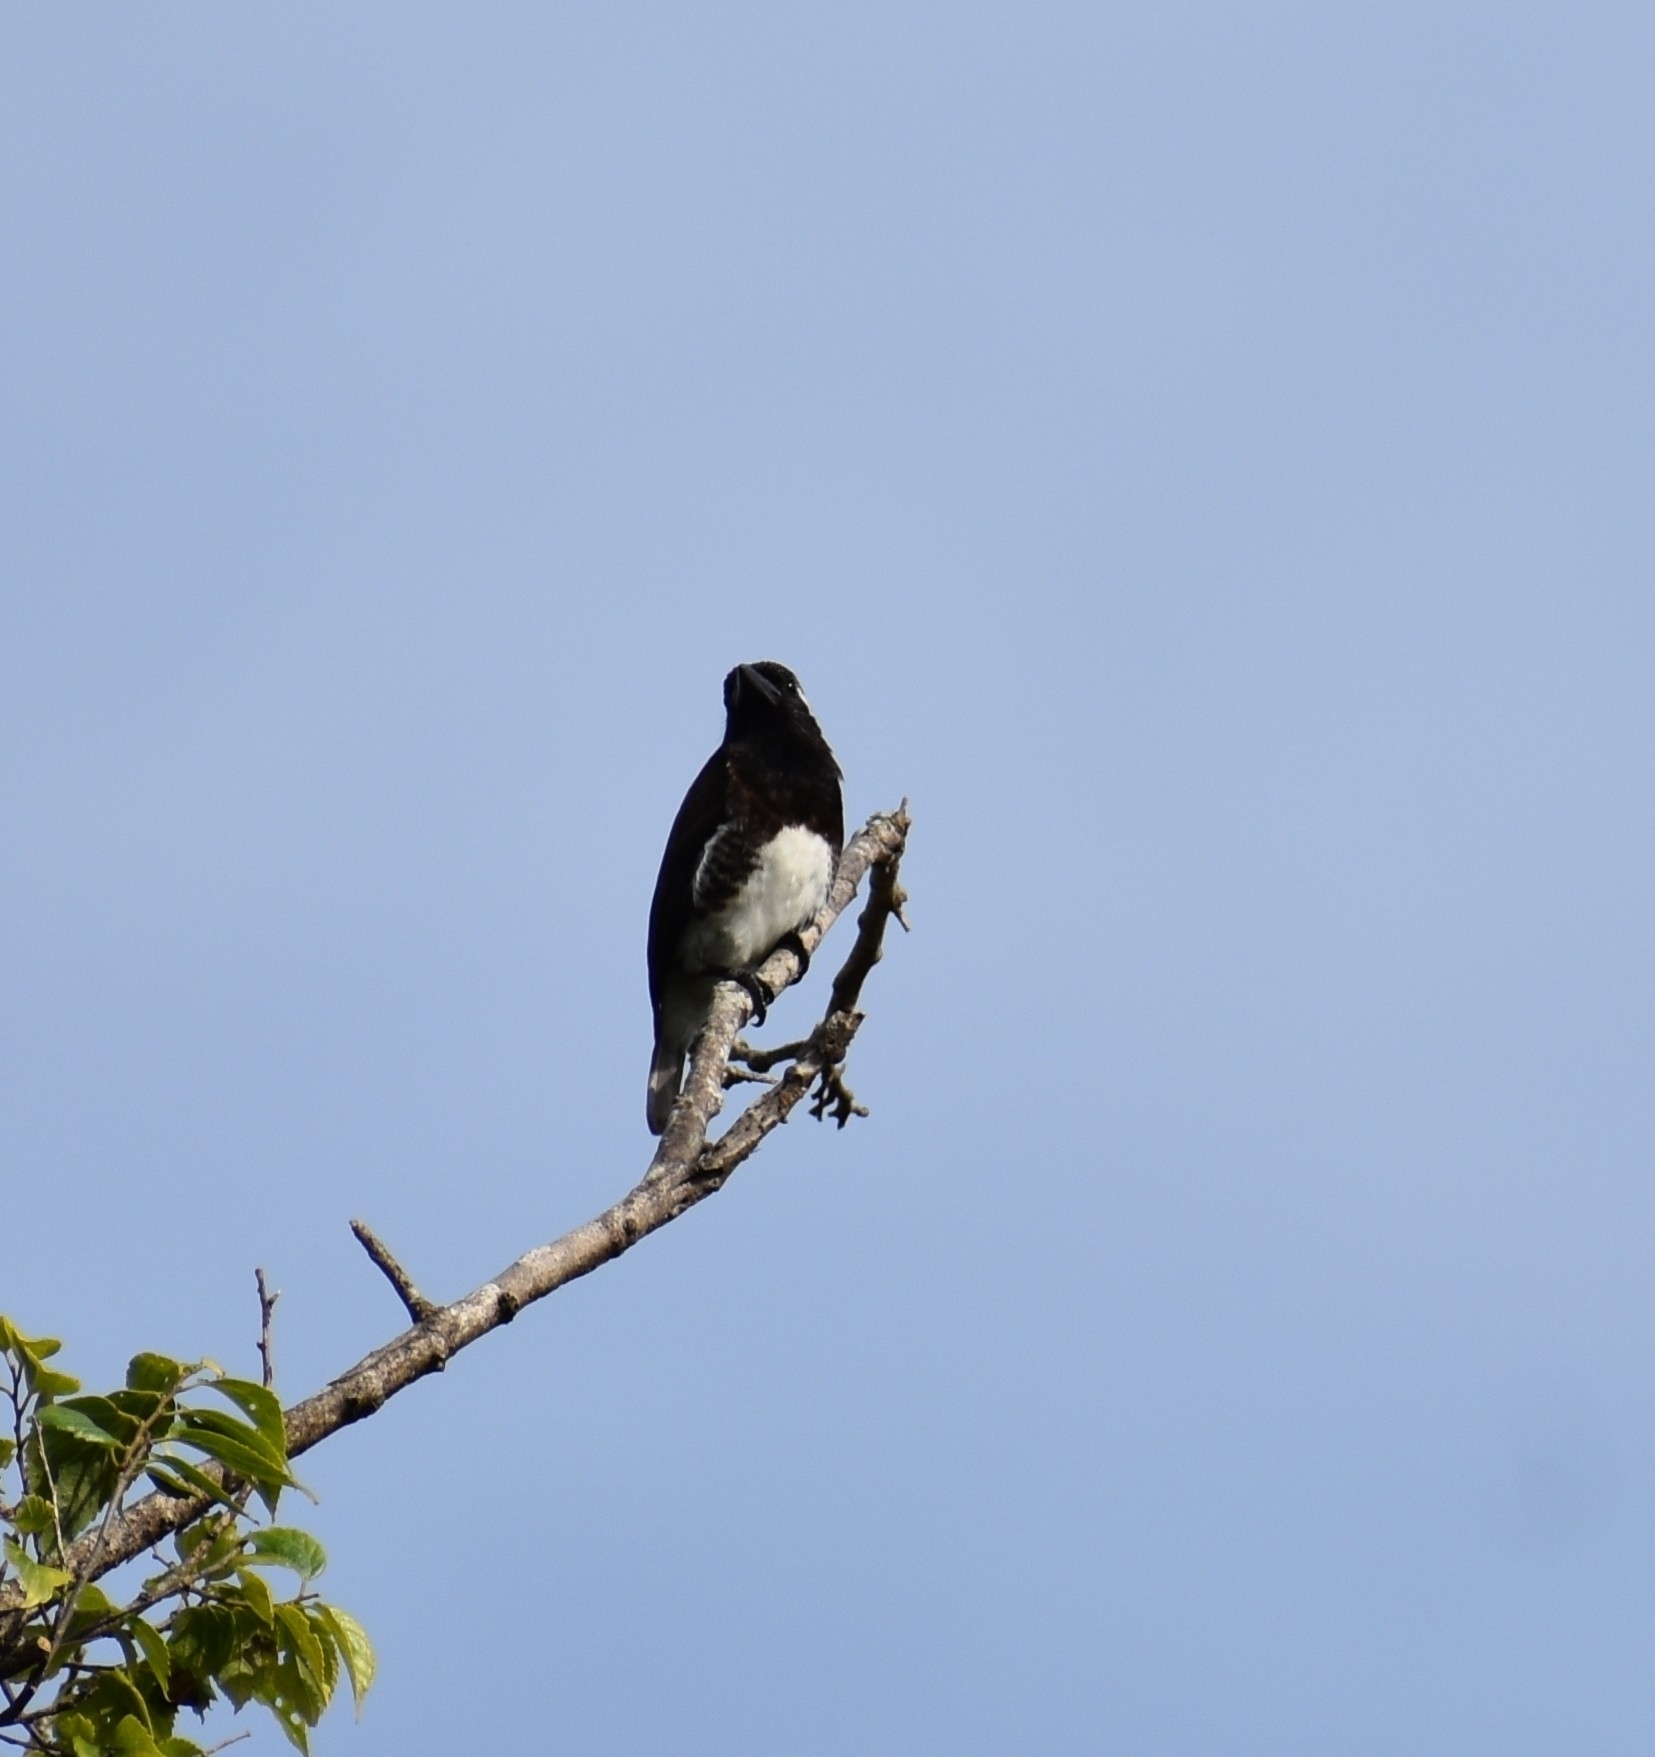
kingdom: Animalia
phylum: Chordata
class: Aves
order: Piciformes
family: Lybiidae
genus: Stactolaema
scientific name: Stactolaema leucotis
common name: White-eared barbet
